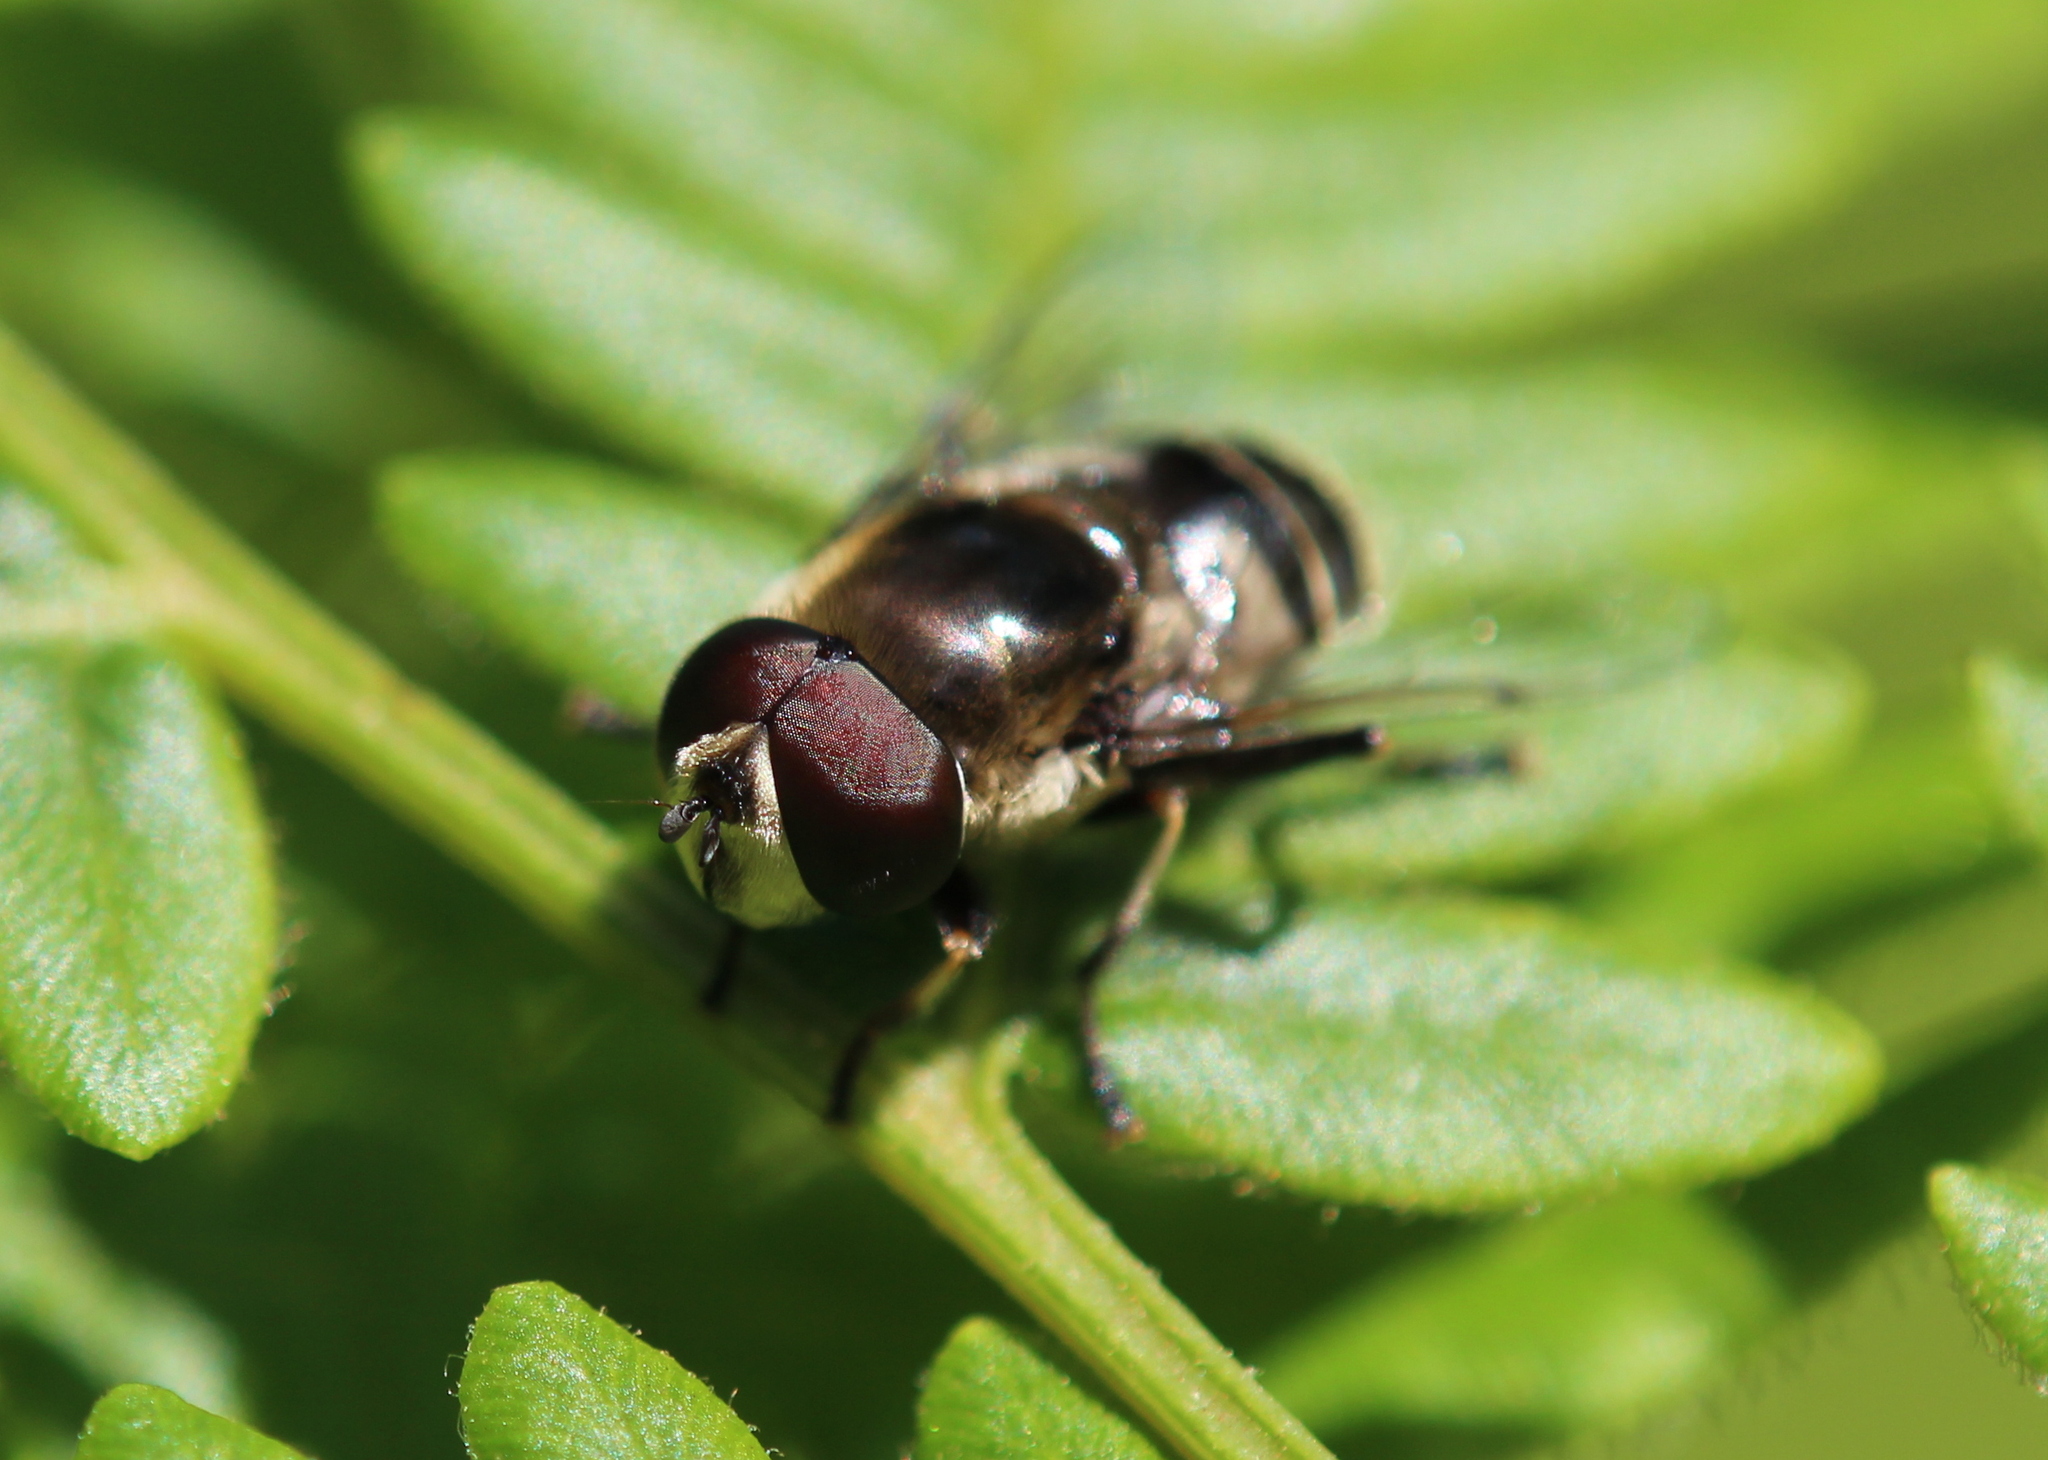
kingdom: Animalia
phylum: Arthropoda
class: Insecta
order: Diptera
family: Syrphidae
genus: Eristalis
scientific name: Eristalis dimidiata
